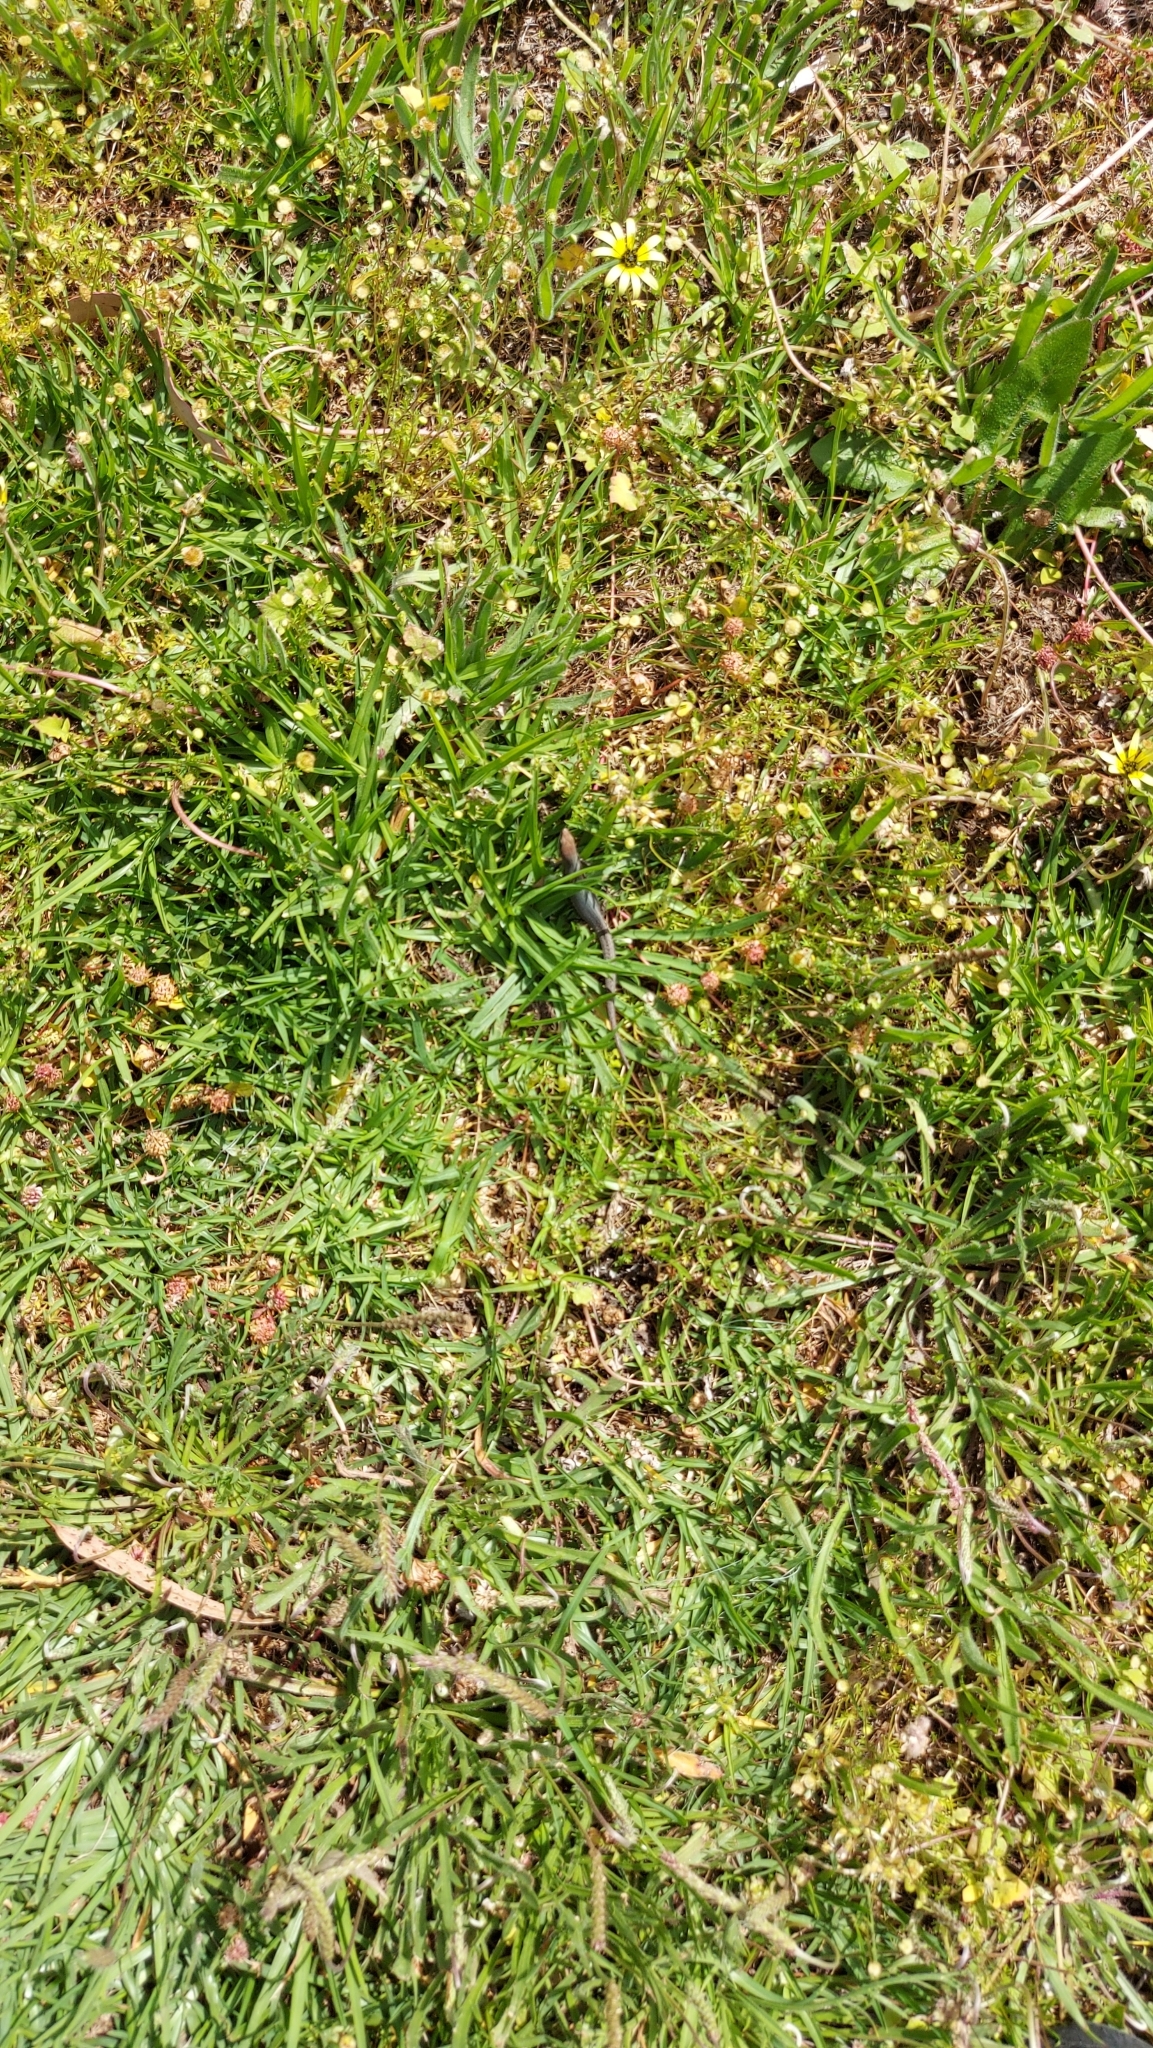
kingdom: Animalia
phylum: Chordata
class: Squamata
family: Scincidae
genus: Lampropholis
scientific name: Lampropholis guichenoti
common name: Garden skink
